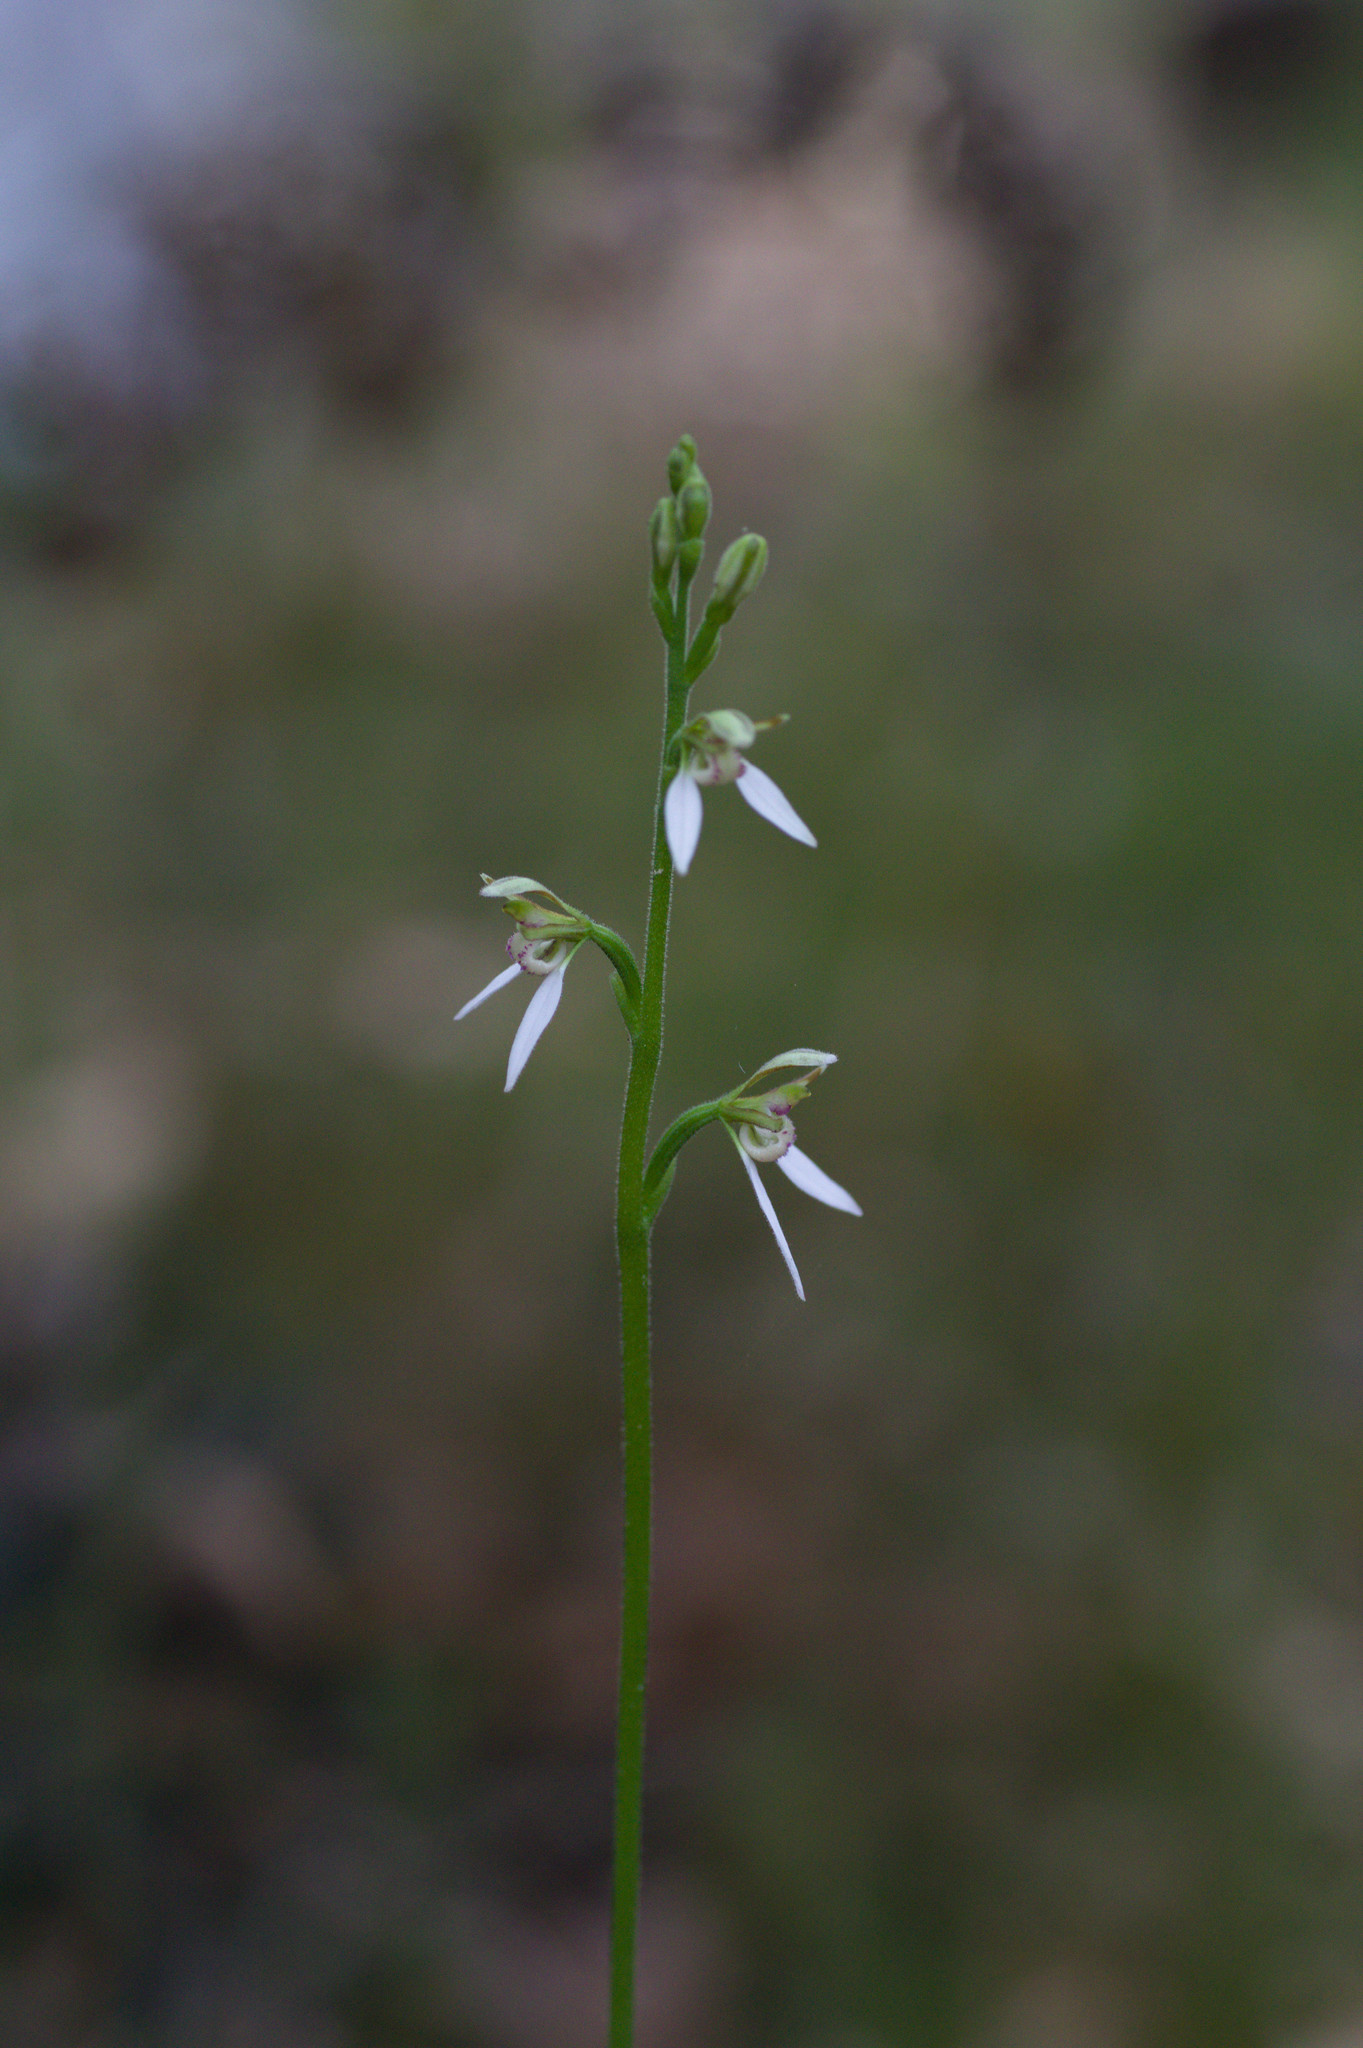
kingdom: Plantae
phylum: Tracheophyta
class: Liliopsida
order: Asparagales
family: Orchidaceae
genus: Eriochilus
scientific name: Eriochilus dilatatus
